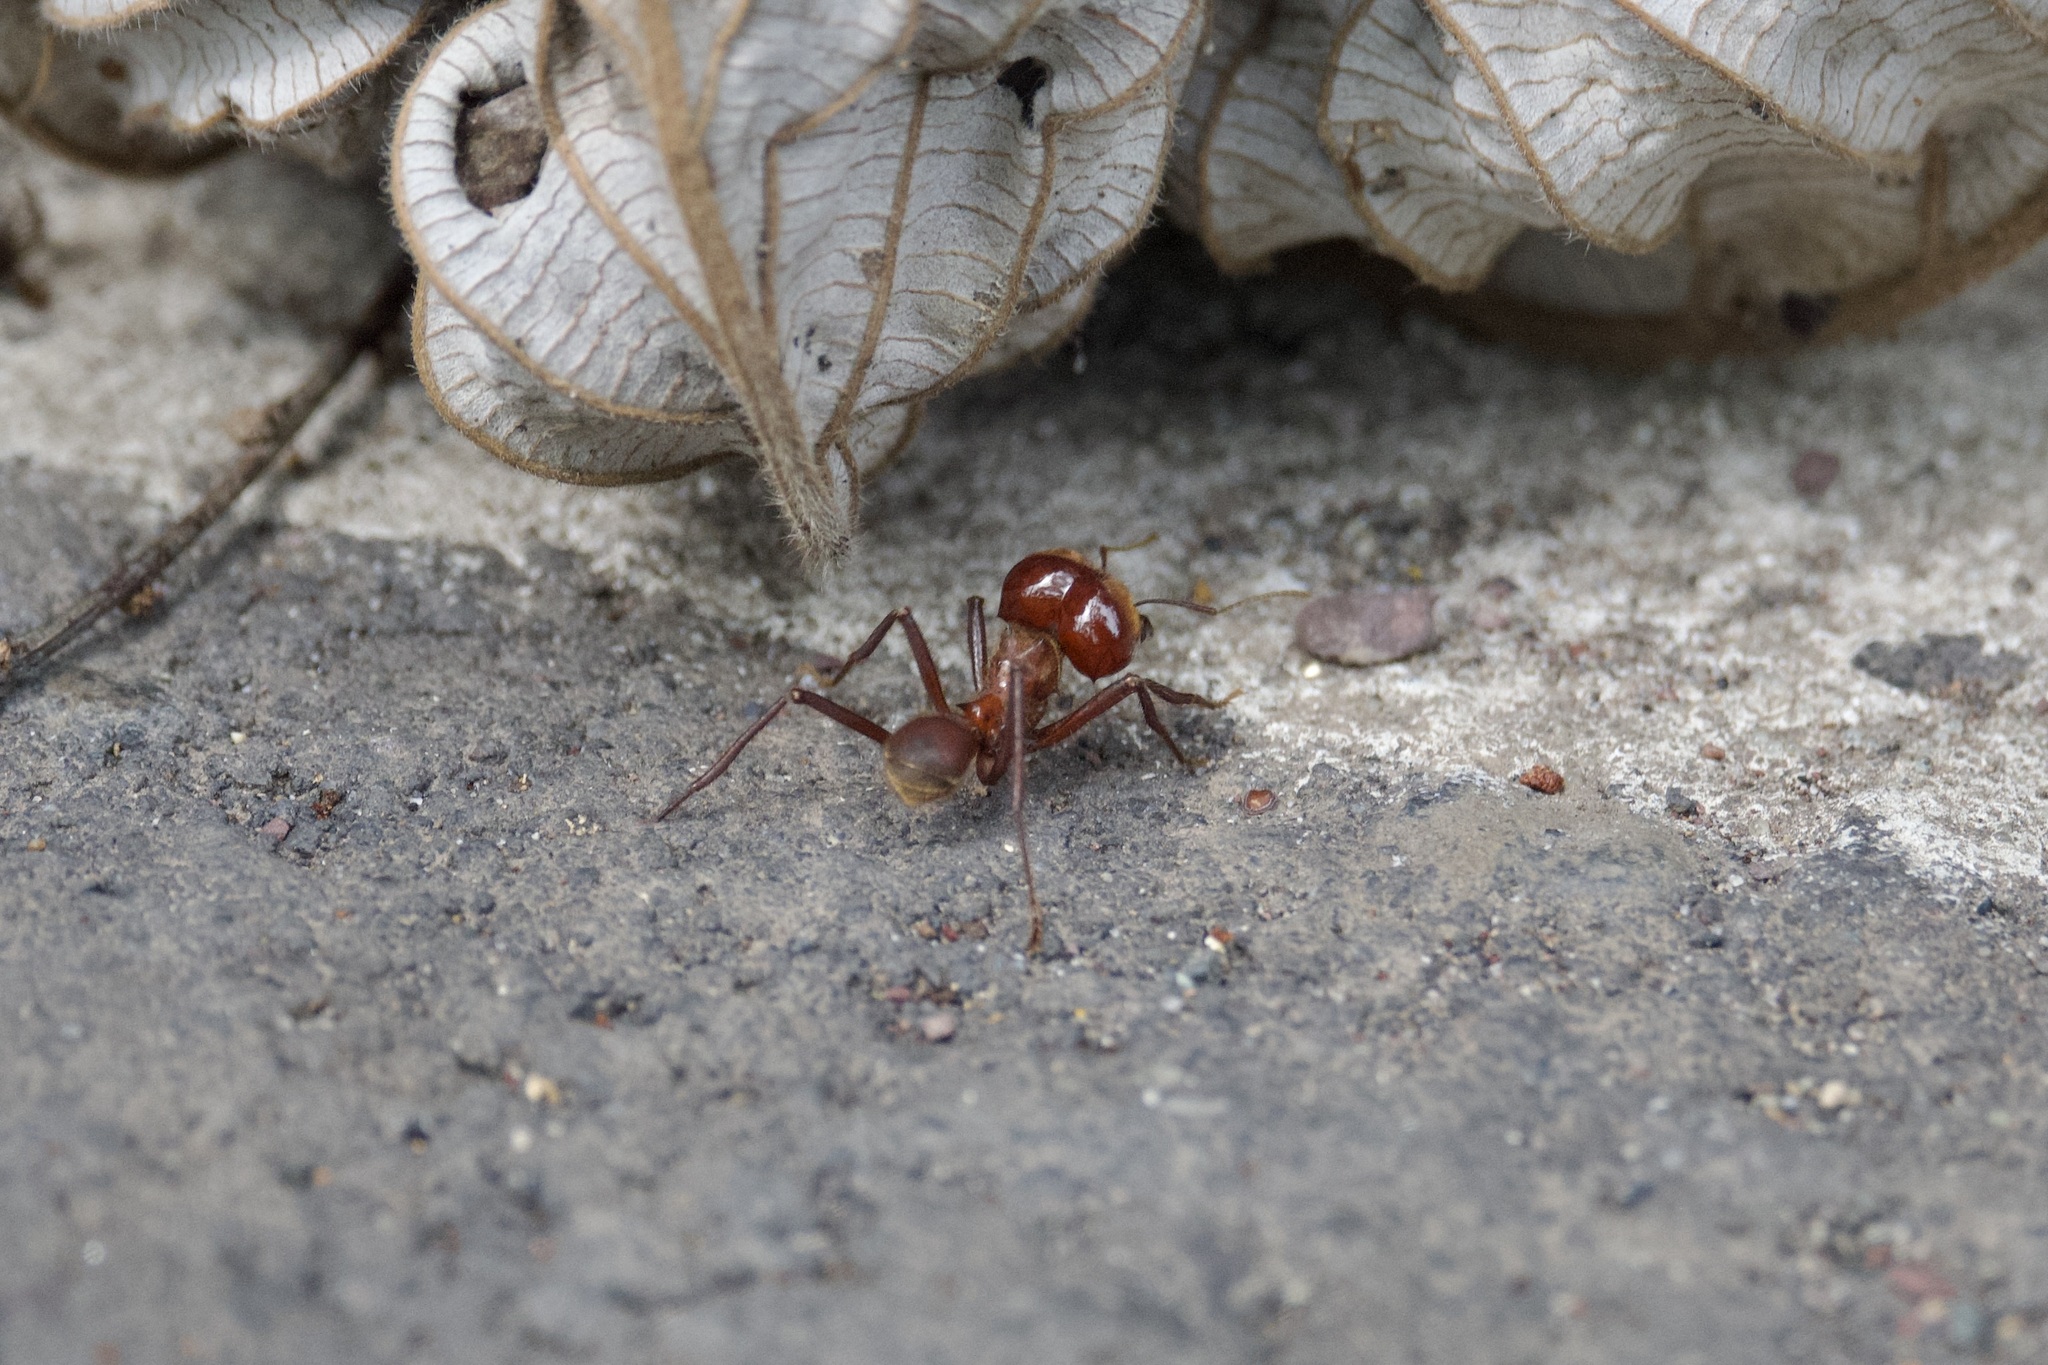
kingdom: Animalia
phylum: Arthropoda
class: Insecta
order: Hymenoptera
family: Formicidae
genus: Atta
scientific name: Atta cephalotes
